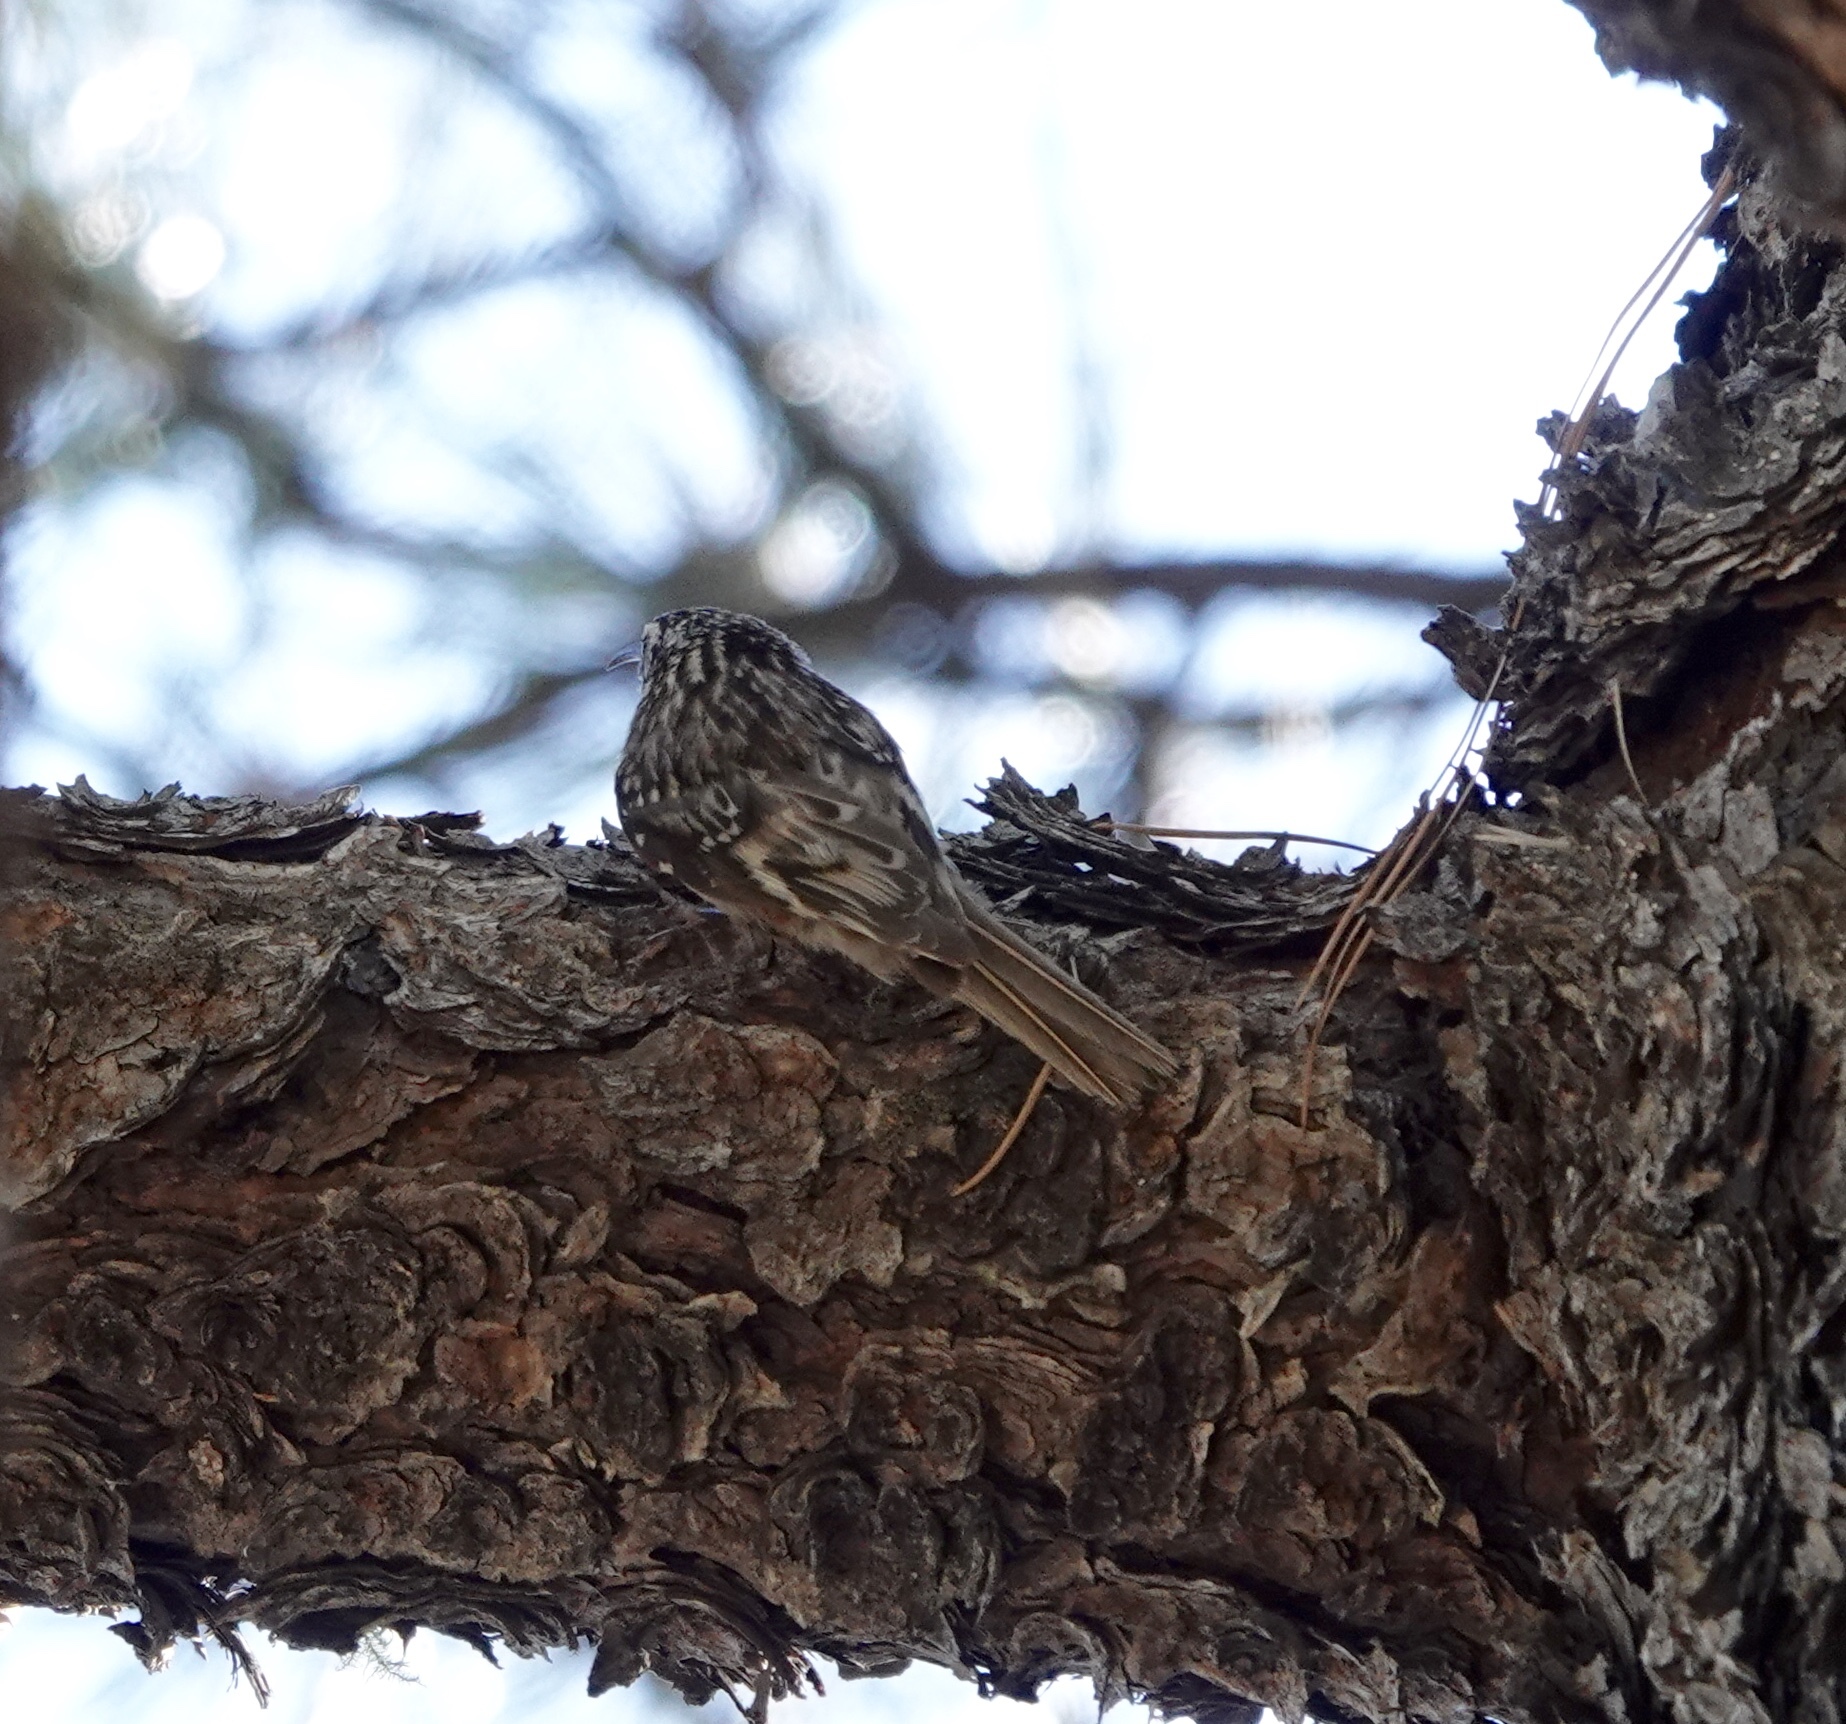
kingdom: Animalia
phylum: Chordata
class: Aves
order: Passeriformes
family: Certhiidae
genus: Certhia
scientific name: Certhia americana
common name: Brown creeper
